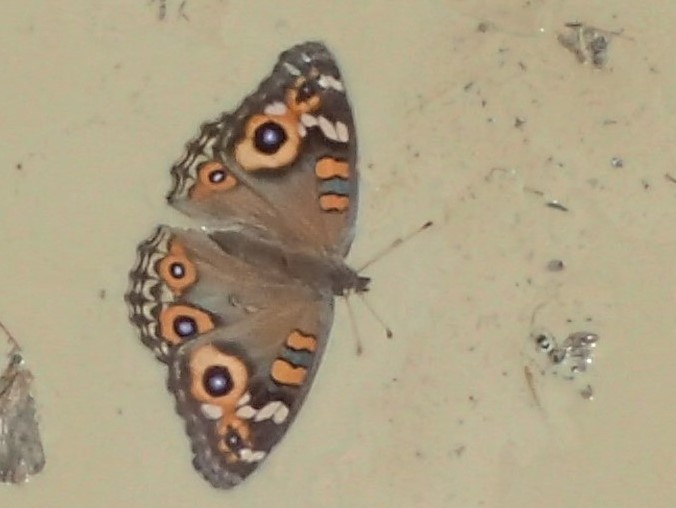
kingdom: Animalia
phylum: Arthropoda
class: Insecta
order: Lepidoptera
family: Nymphalidae
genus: Junonia
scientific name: Junonia villida
